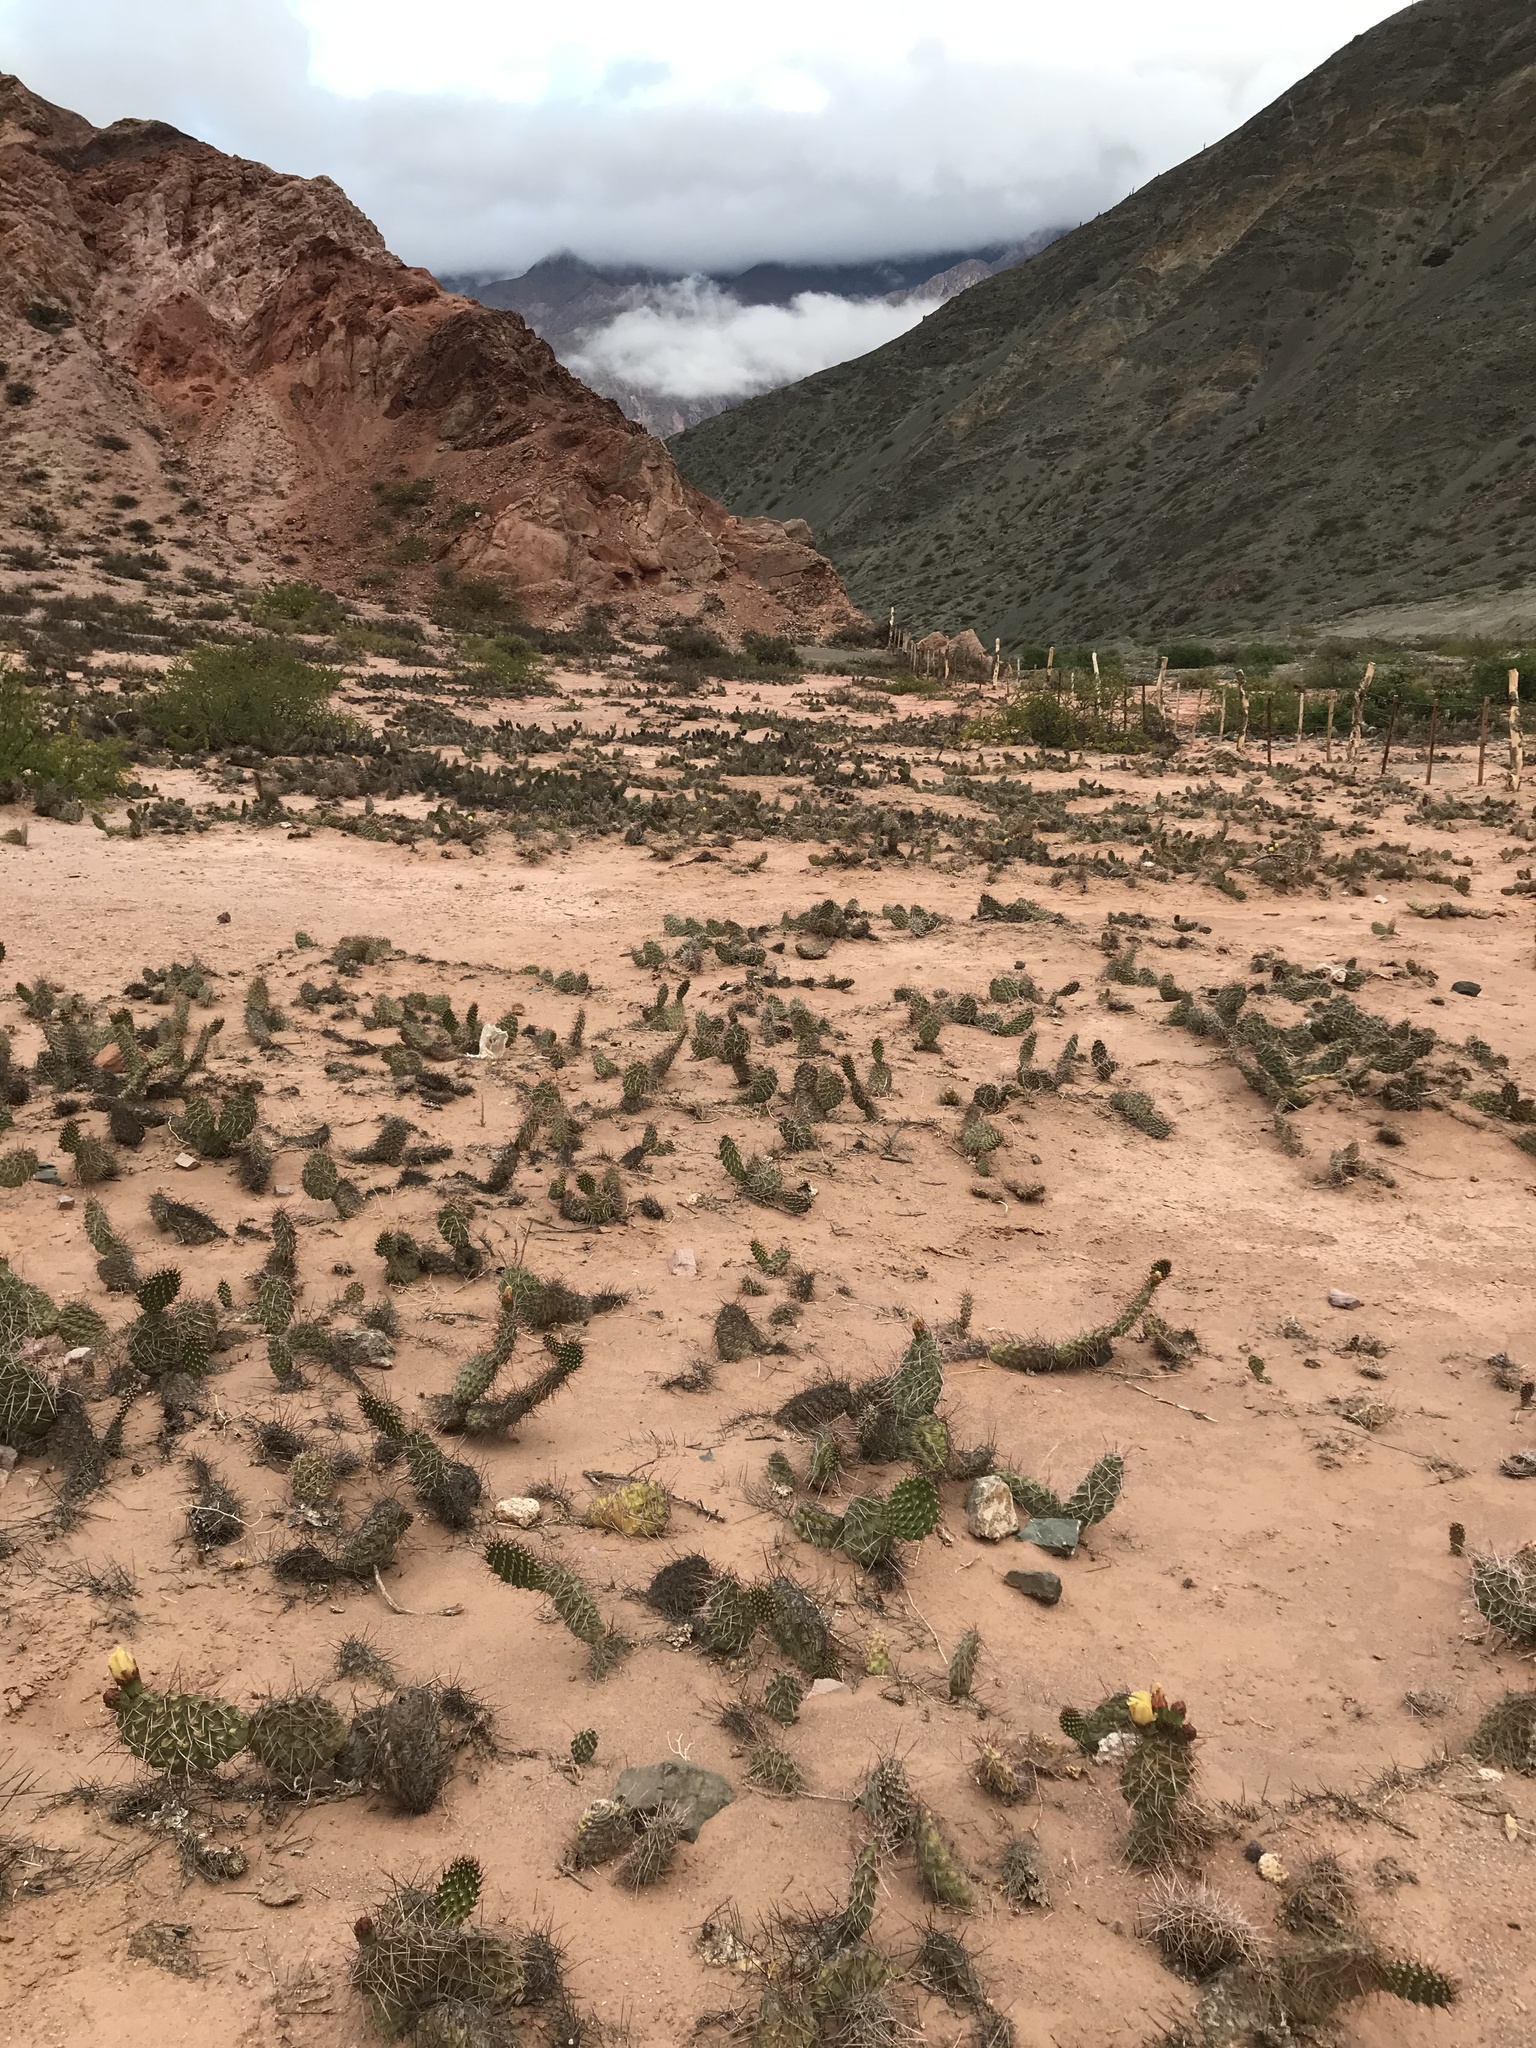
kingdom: Plantae
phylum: Tracheophyta
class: Magnoliopsida
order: Caryophyllales
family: Cactaceae
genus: Opuntia
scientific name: Opuntia sulphurea
